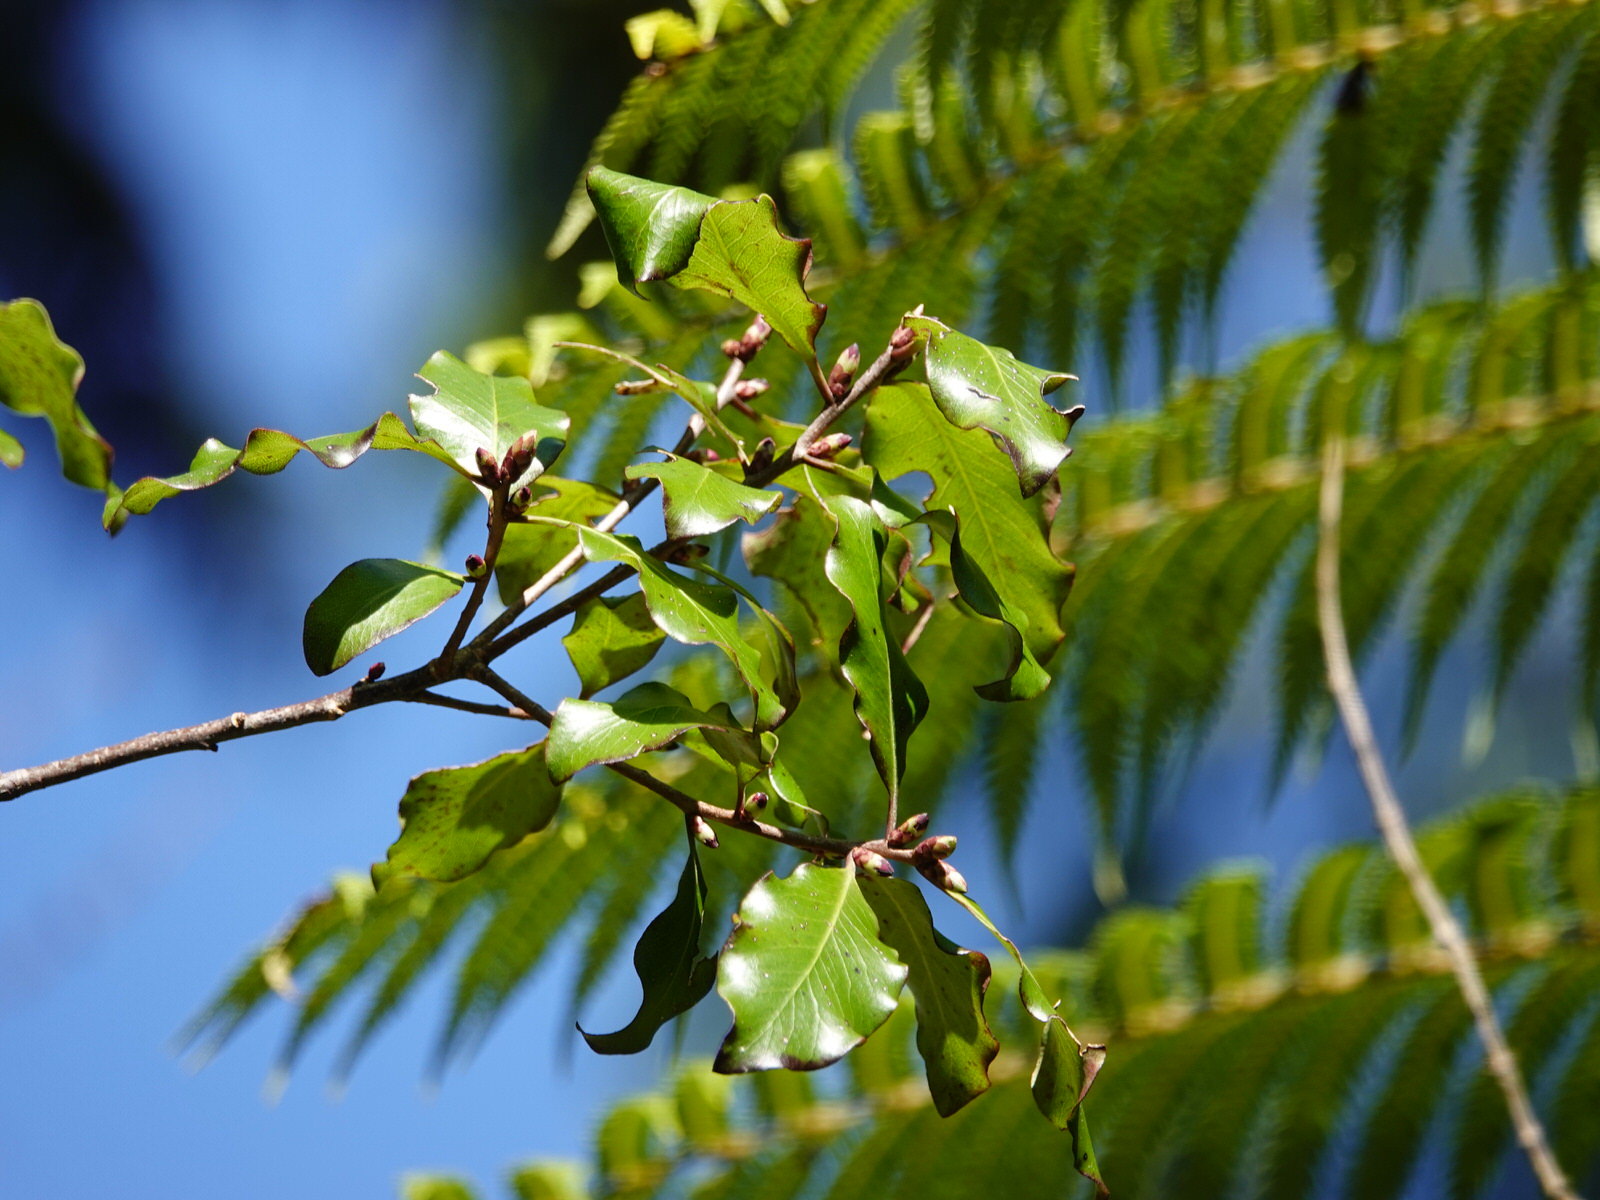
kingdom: Plantae
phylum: Tracheophyta
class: Magnoliopsida
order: Apiales
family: Pittosporaceae
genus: Pittosporum
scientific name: Pittosporum tenuifolium
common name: Kohuhu
